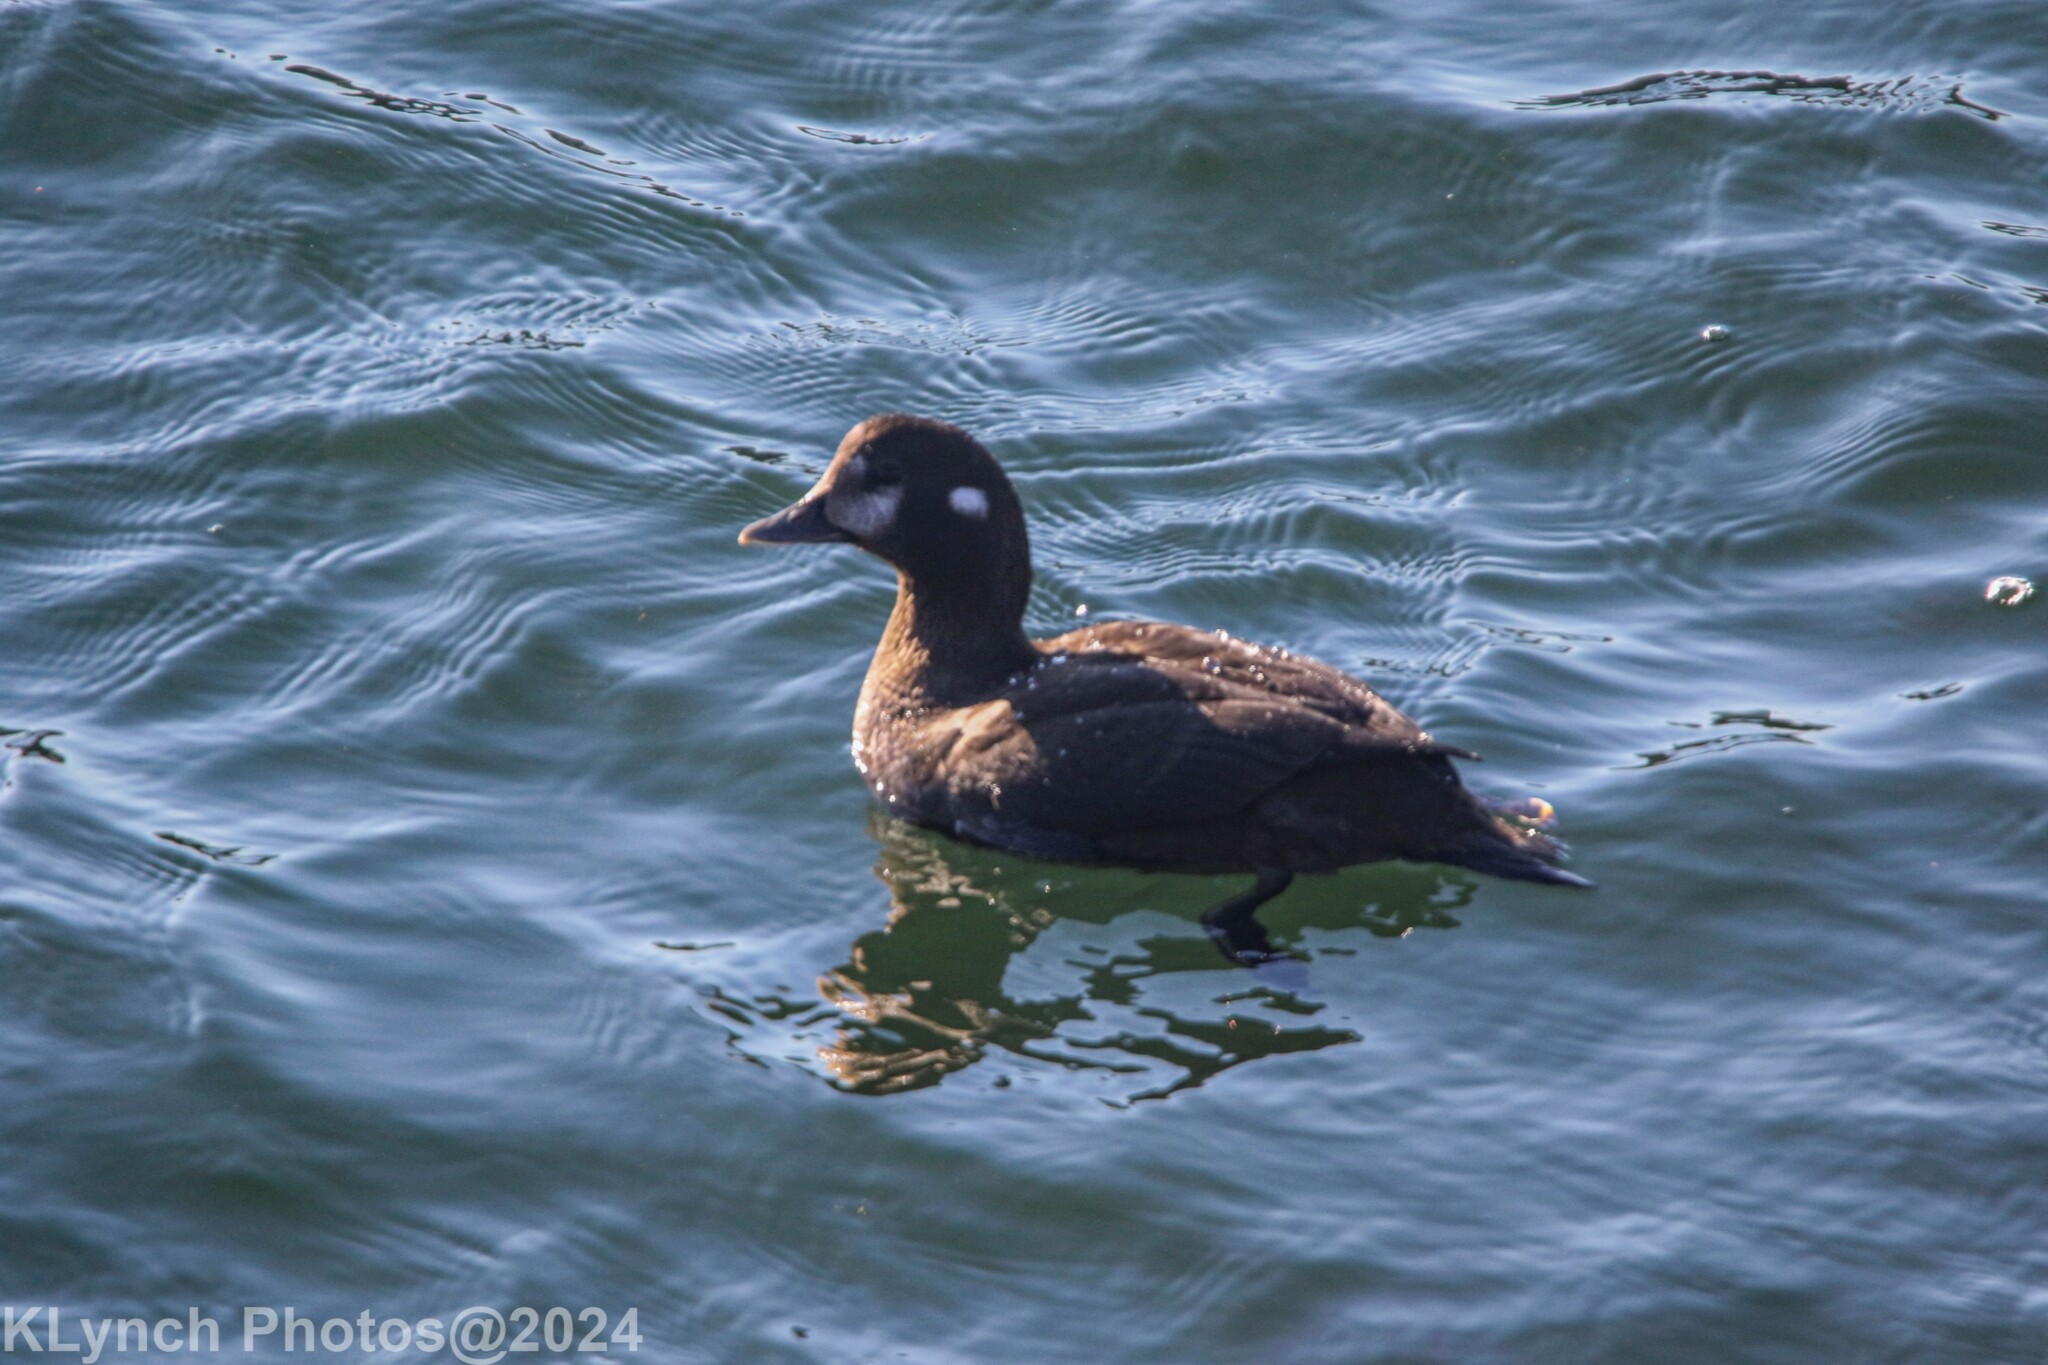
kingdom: Animalia
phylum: Chordata
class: Aves
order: Anseriformes
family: Anatidae
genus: Histrionicus
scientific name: Histrionicus histrionicus
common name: Harlequin duck
